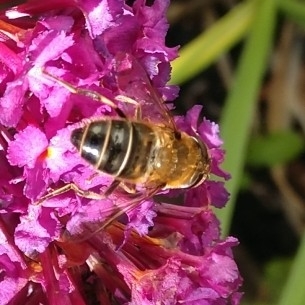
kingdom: Animalia
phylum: Arthropoda
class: Insecta
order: Diptera
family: Syrphidae
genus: Eristalis
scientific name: Eristalis pertinax
